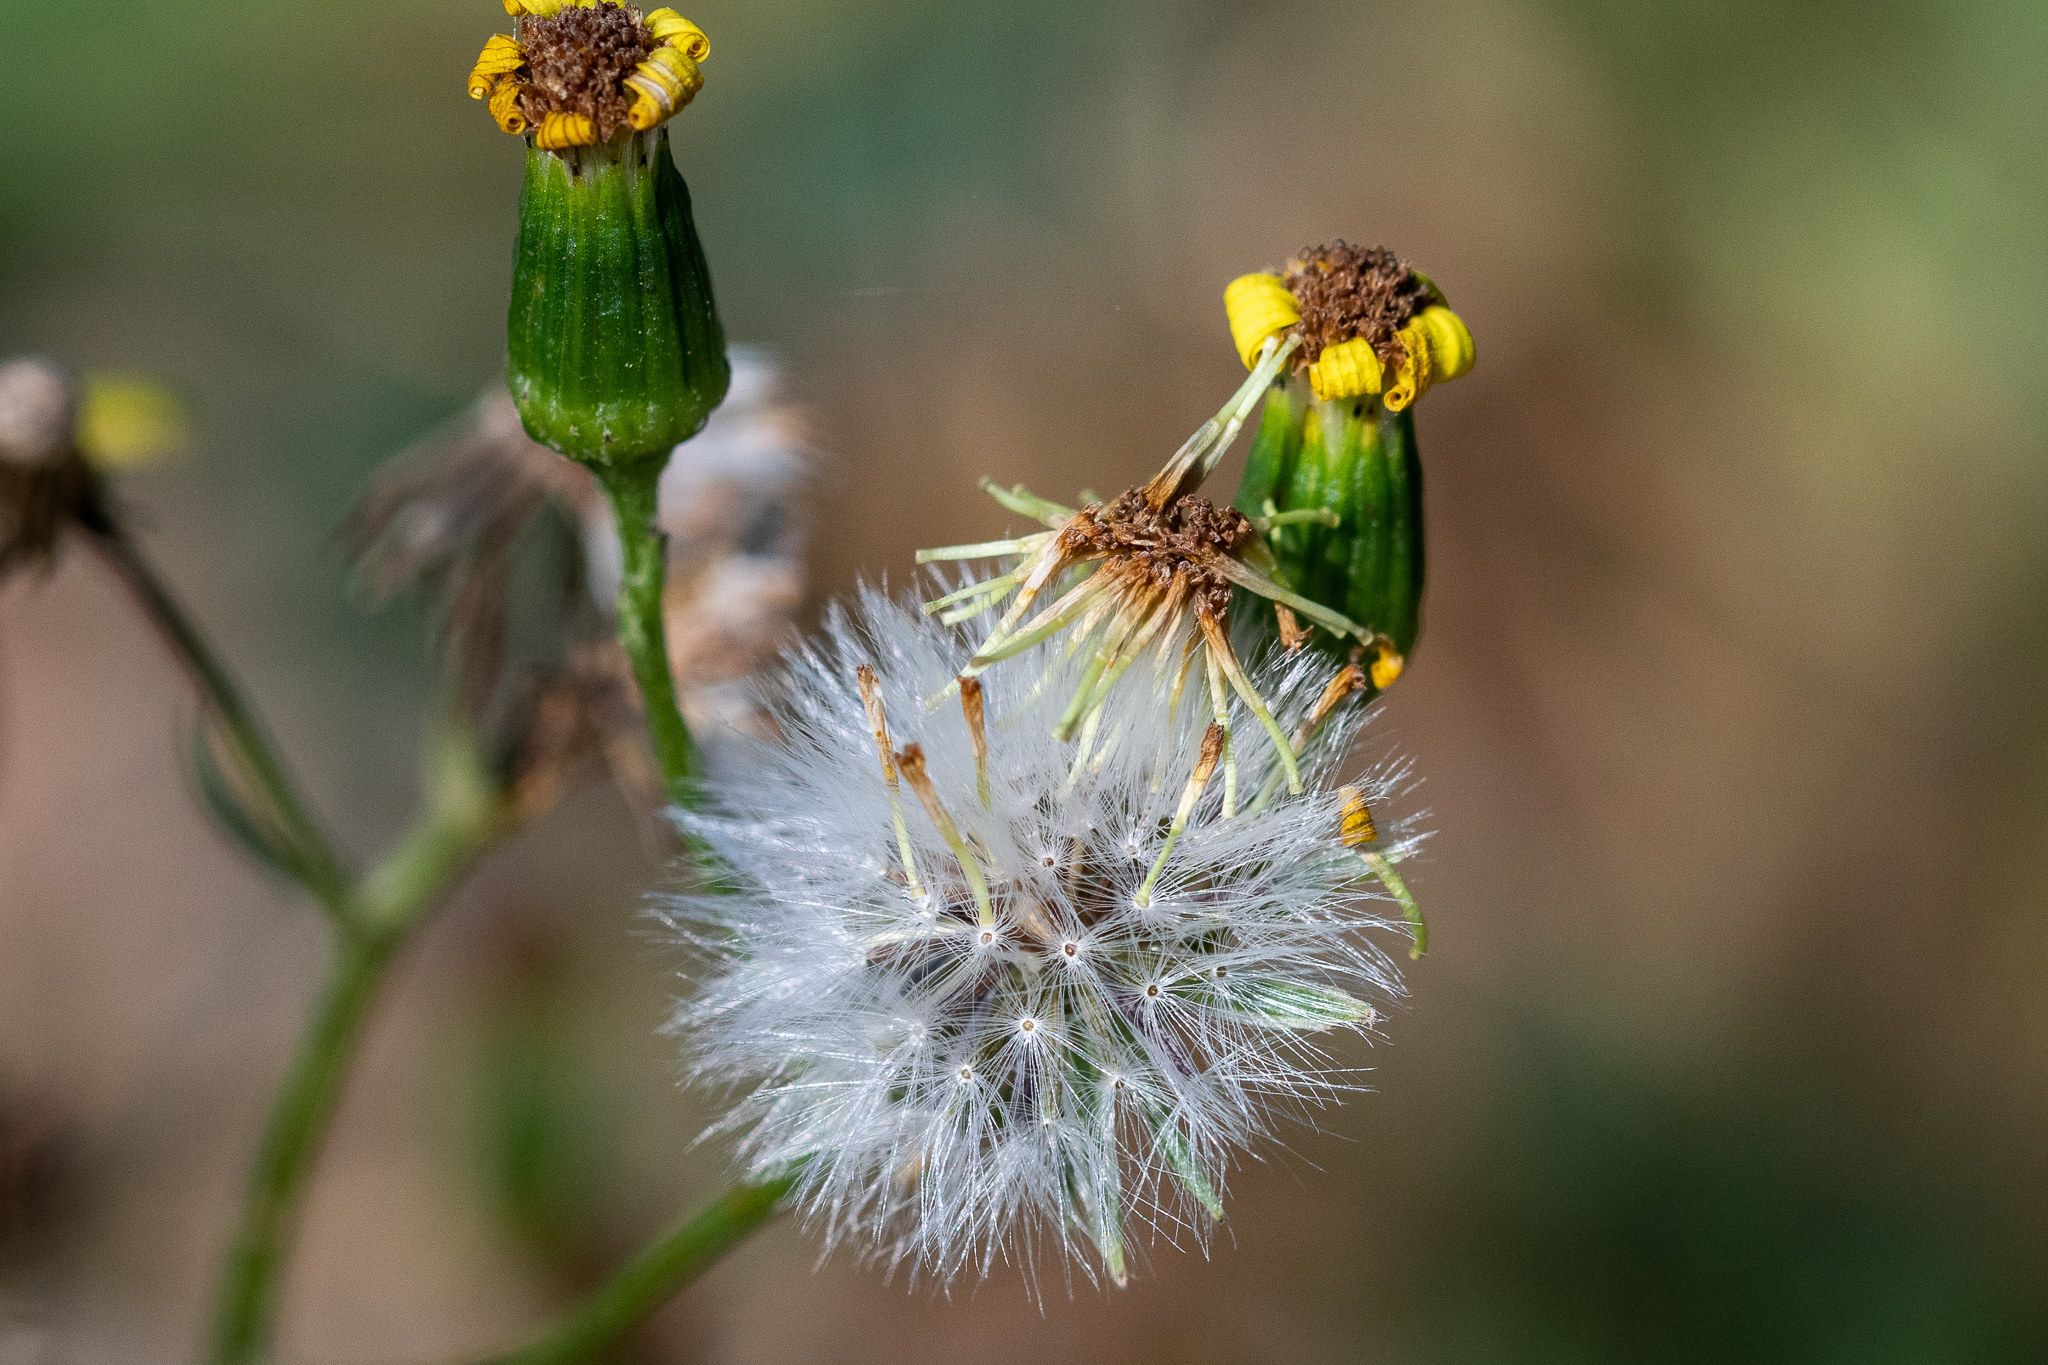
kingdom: Plantae
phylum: Tracheophyta
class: Magnoliopsida
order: Asterales
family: Asteraceae
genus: Senecio
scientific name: Senecio pinnulatus
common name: Narrow-lobed ragwort
